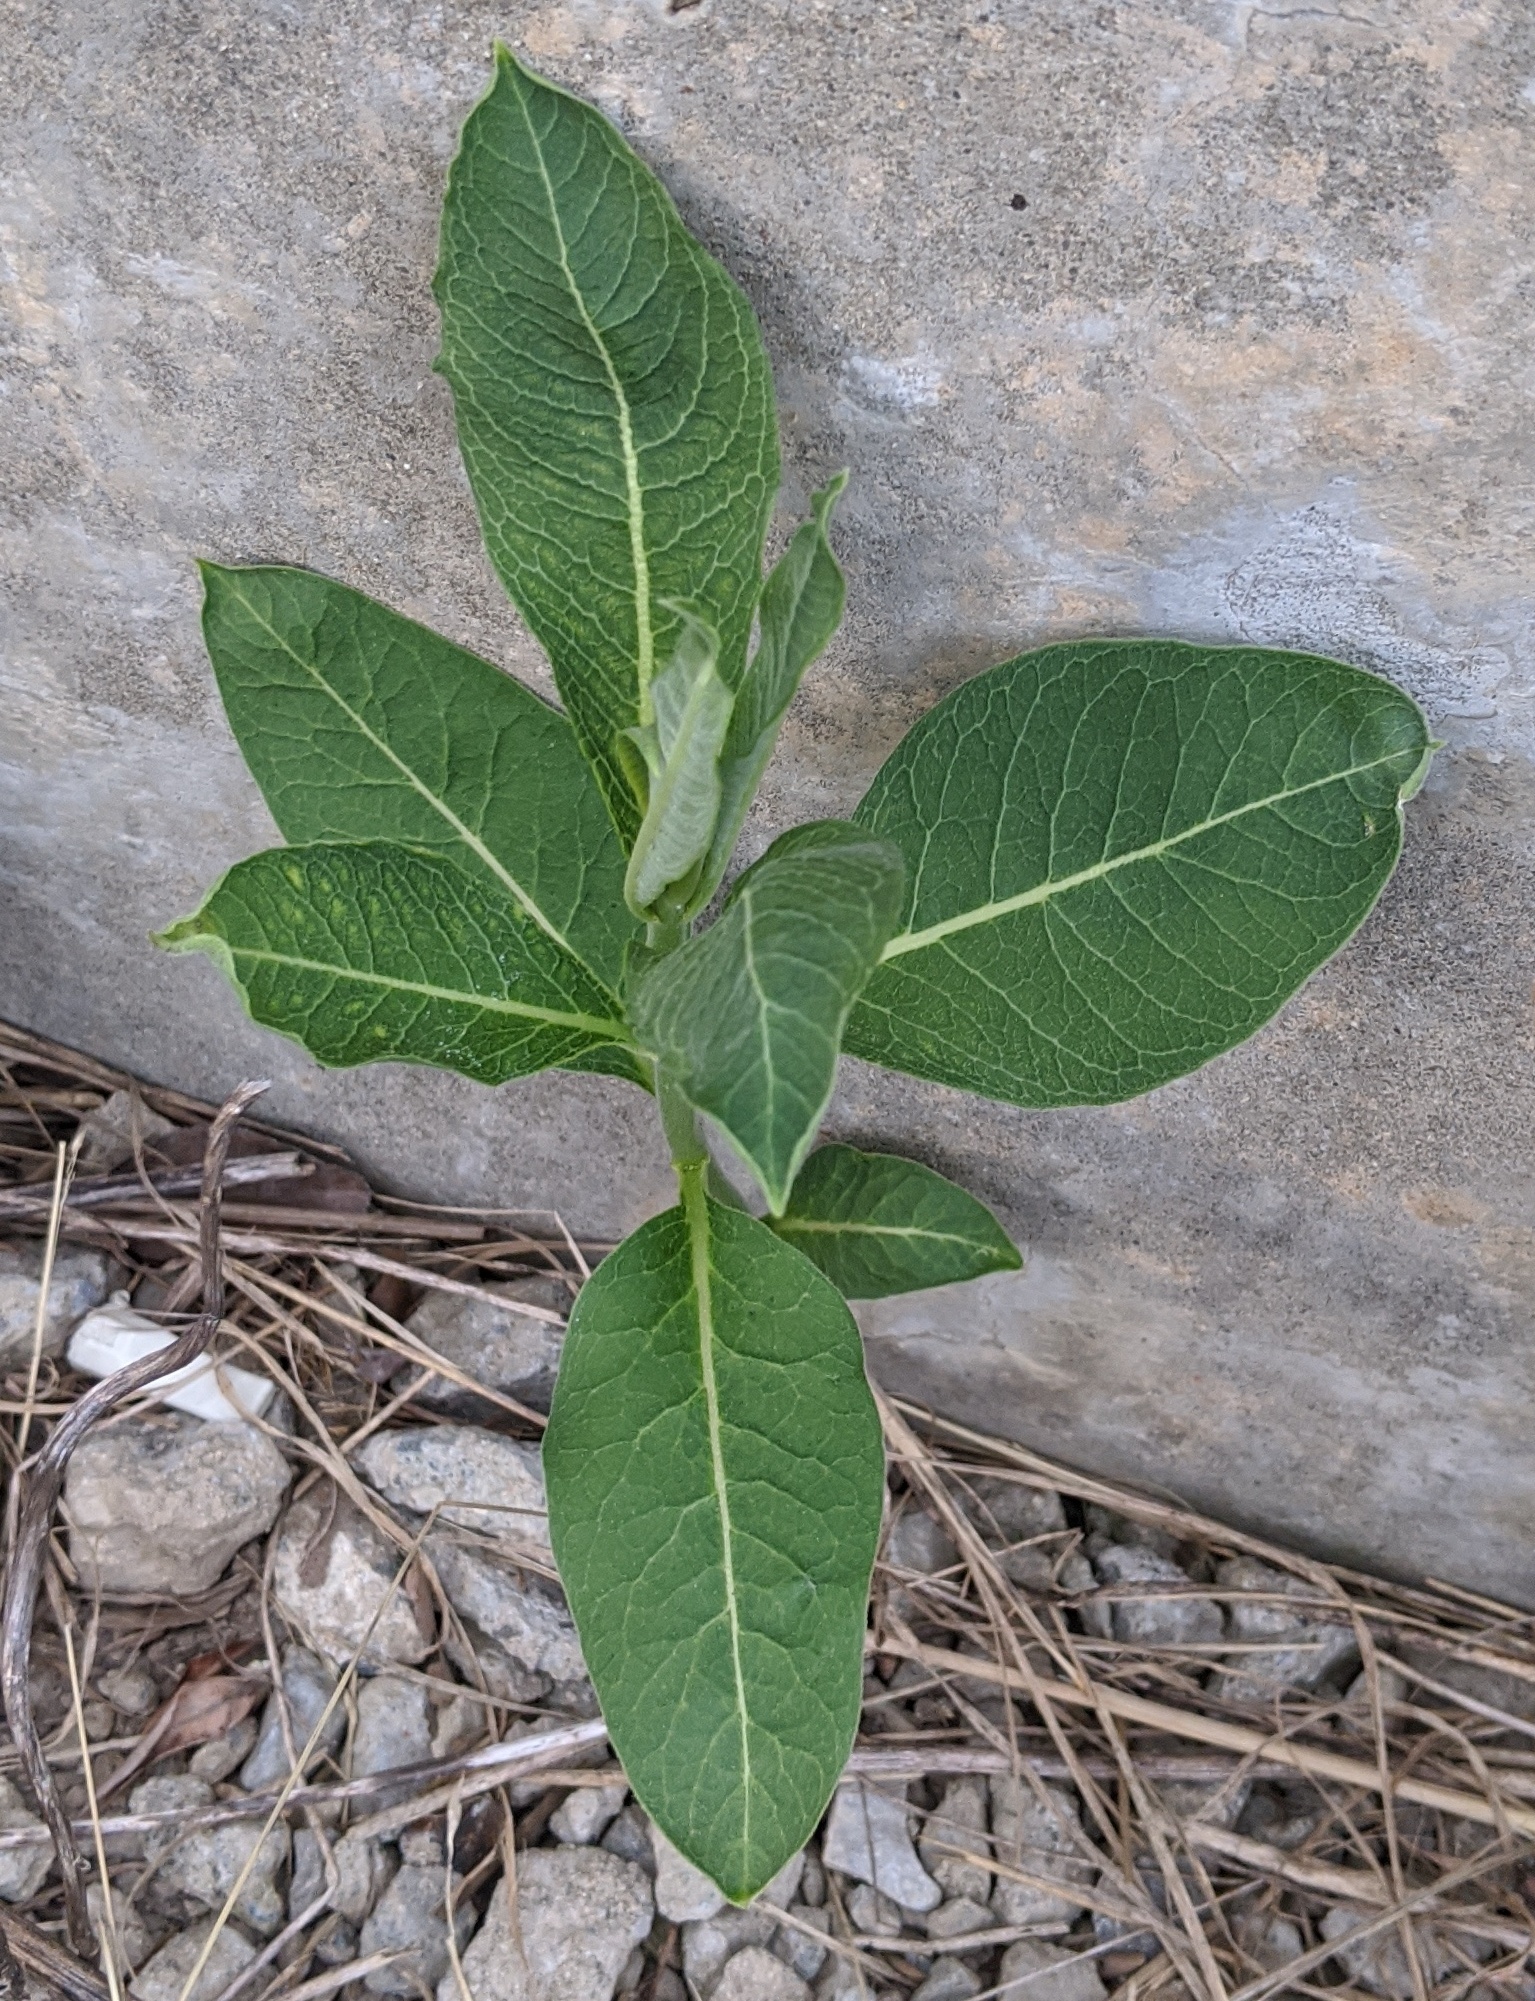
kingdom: Plantae
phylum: Tracheophyta
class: Magnoliopsida
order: Gentianales
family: Apocynaceae
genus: Asclepias
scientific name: Asclepias syriaca
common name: Common milkweed
